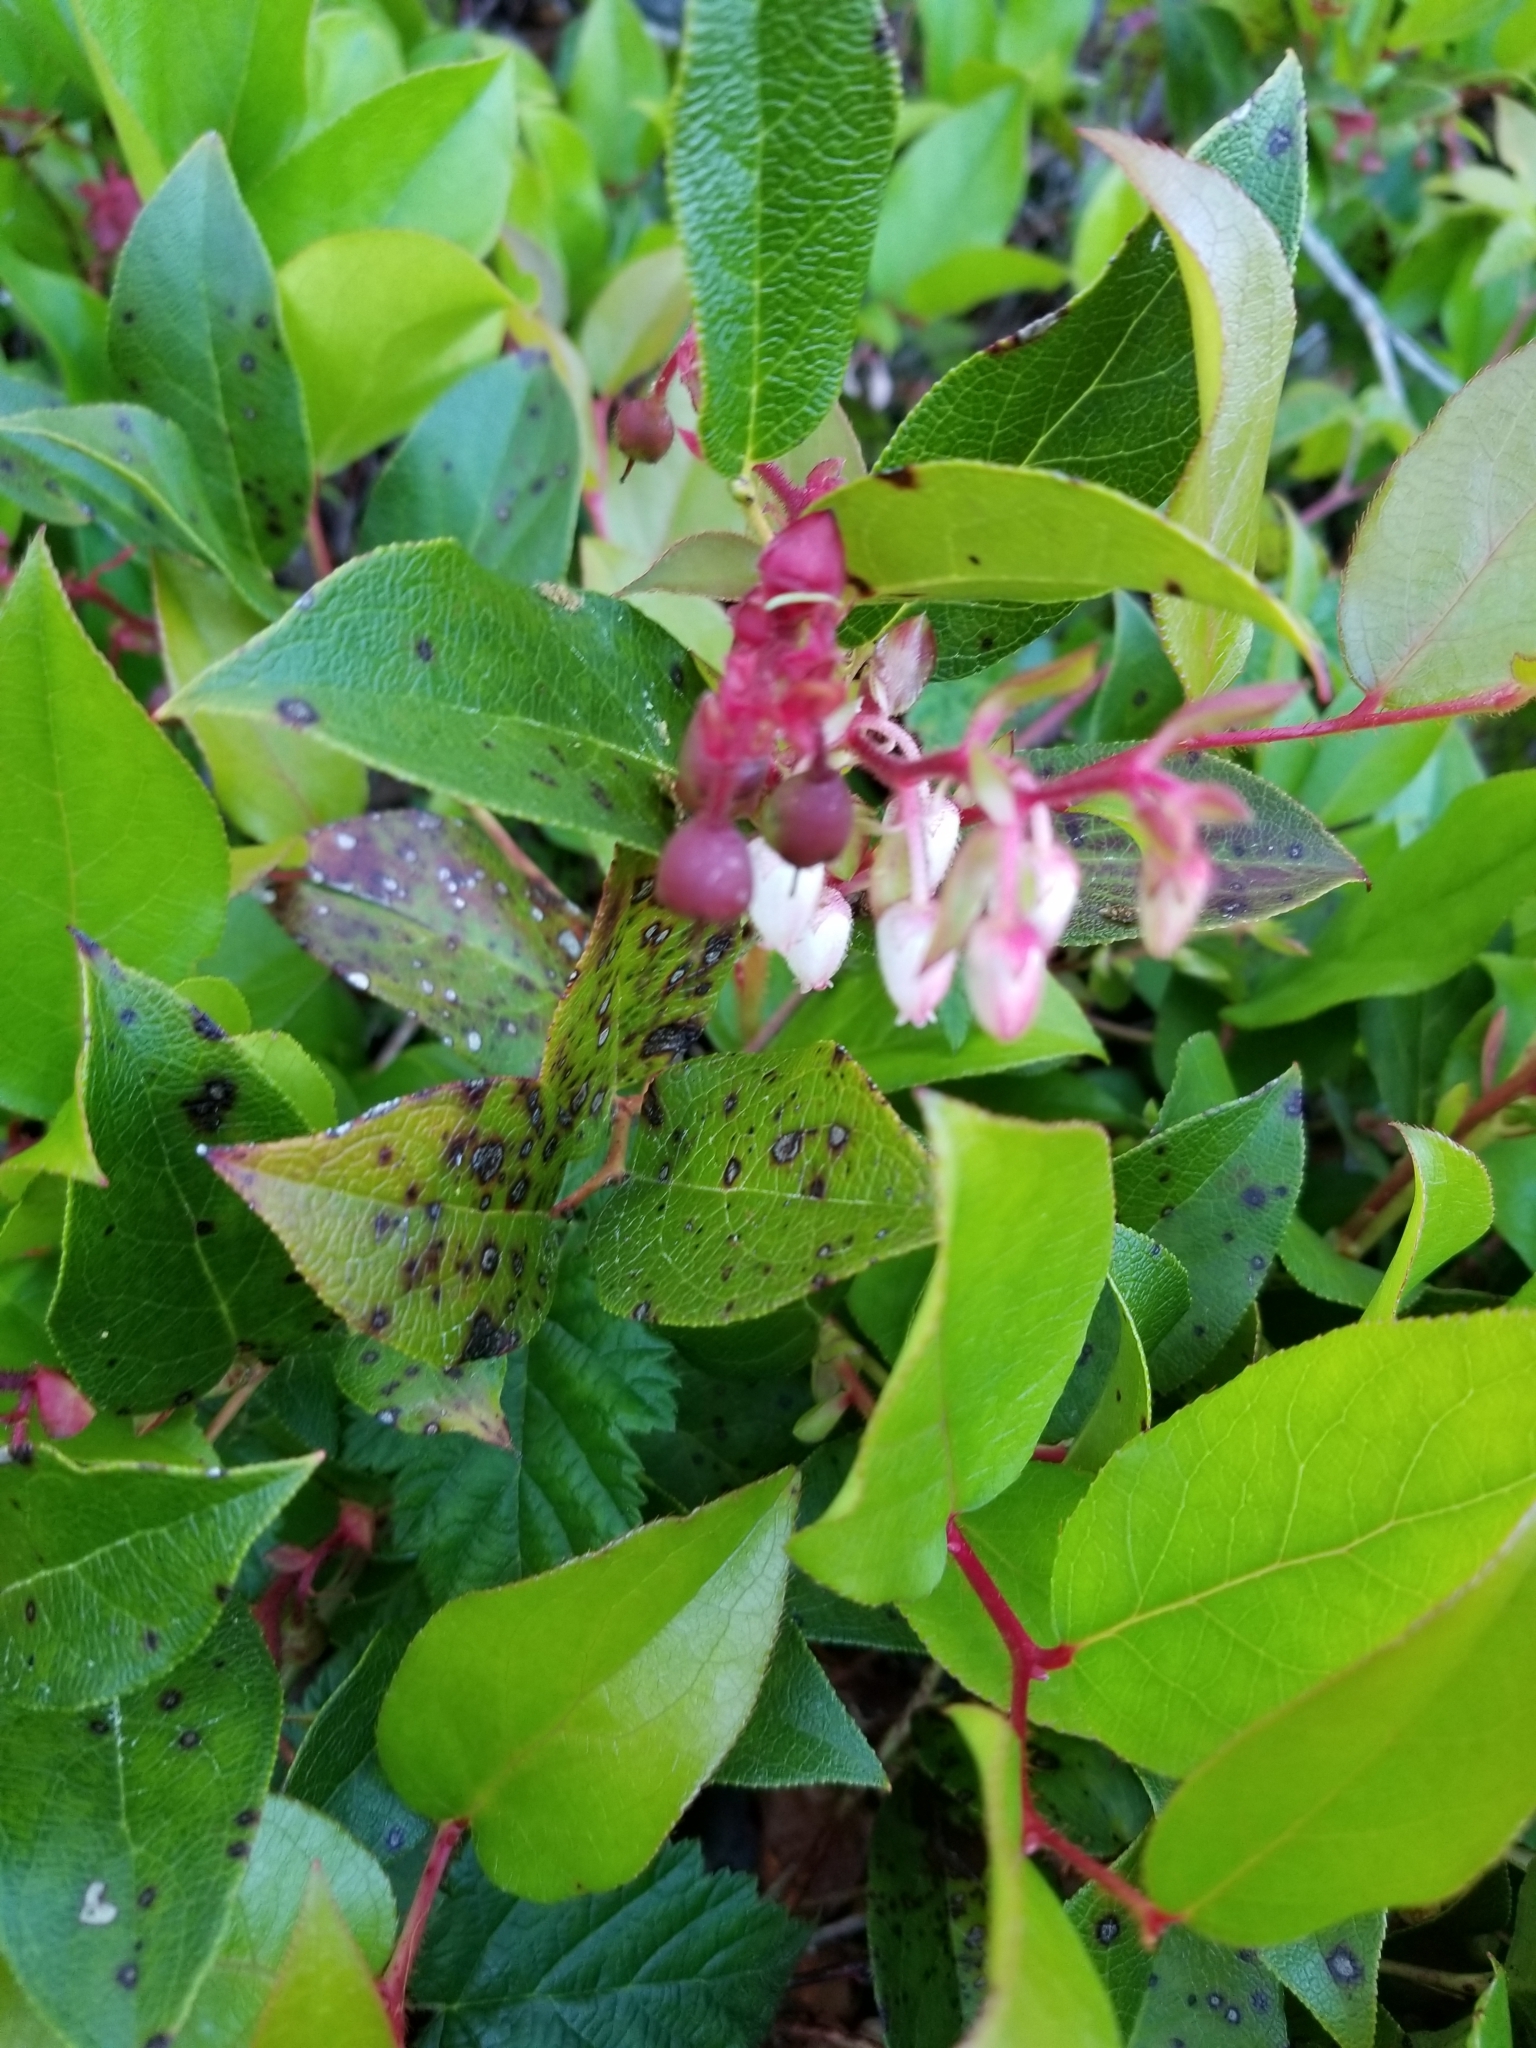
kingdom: Plantae
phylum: Tracheophyta
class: Magnoliopsida
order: Ericales
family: Ericaceae
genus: Gaultheria
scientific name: Gaultheria shallon
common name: Shallon
